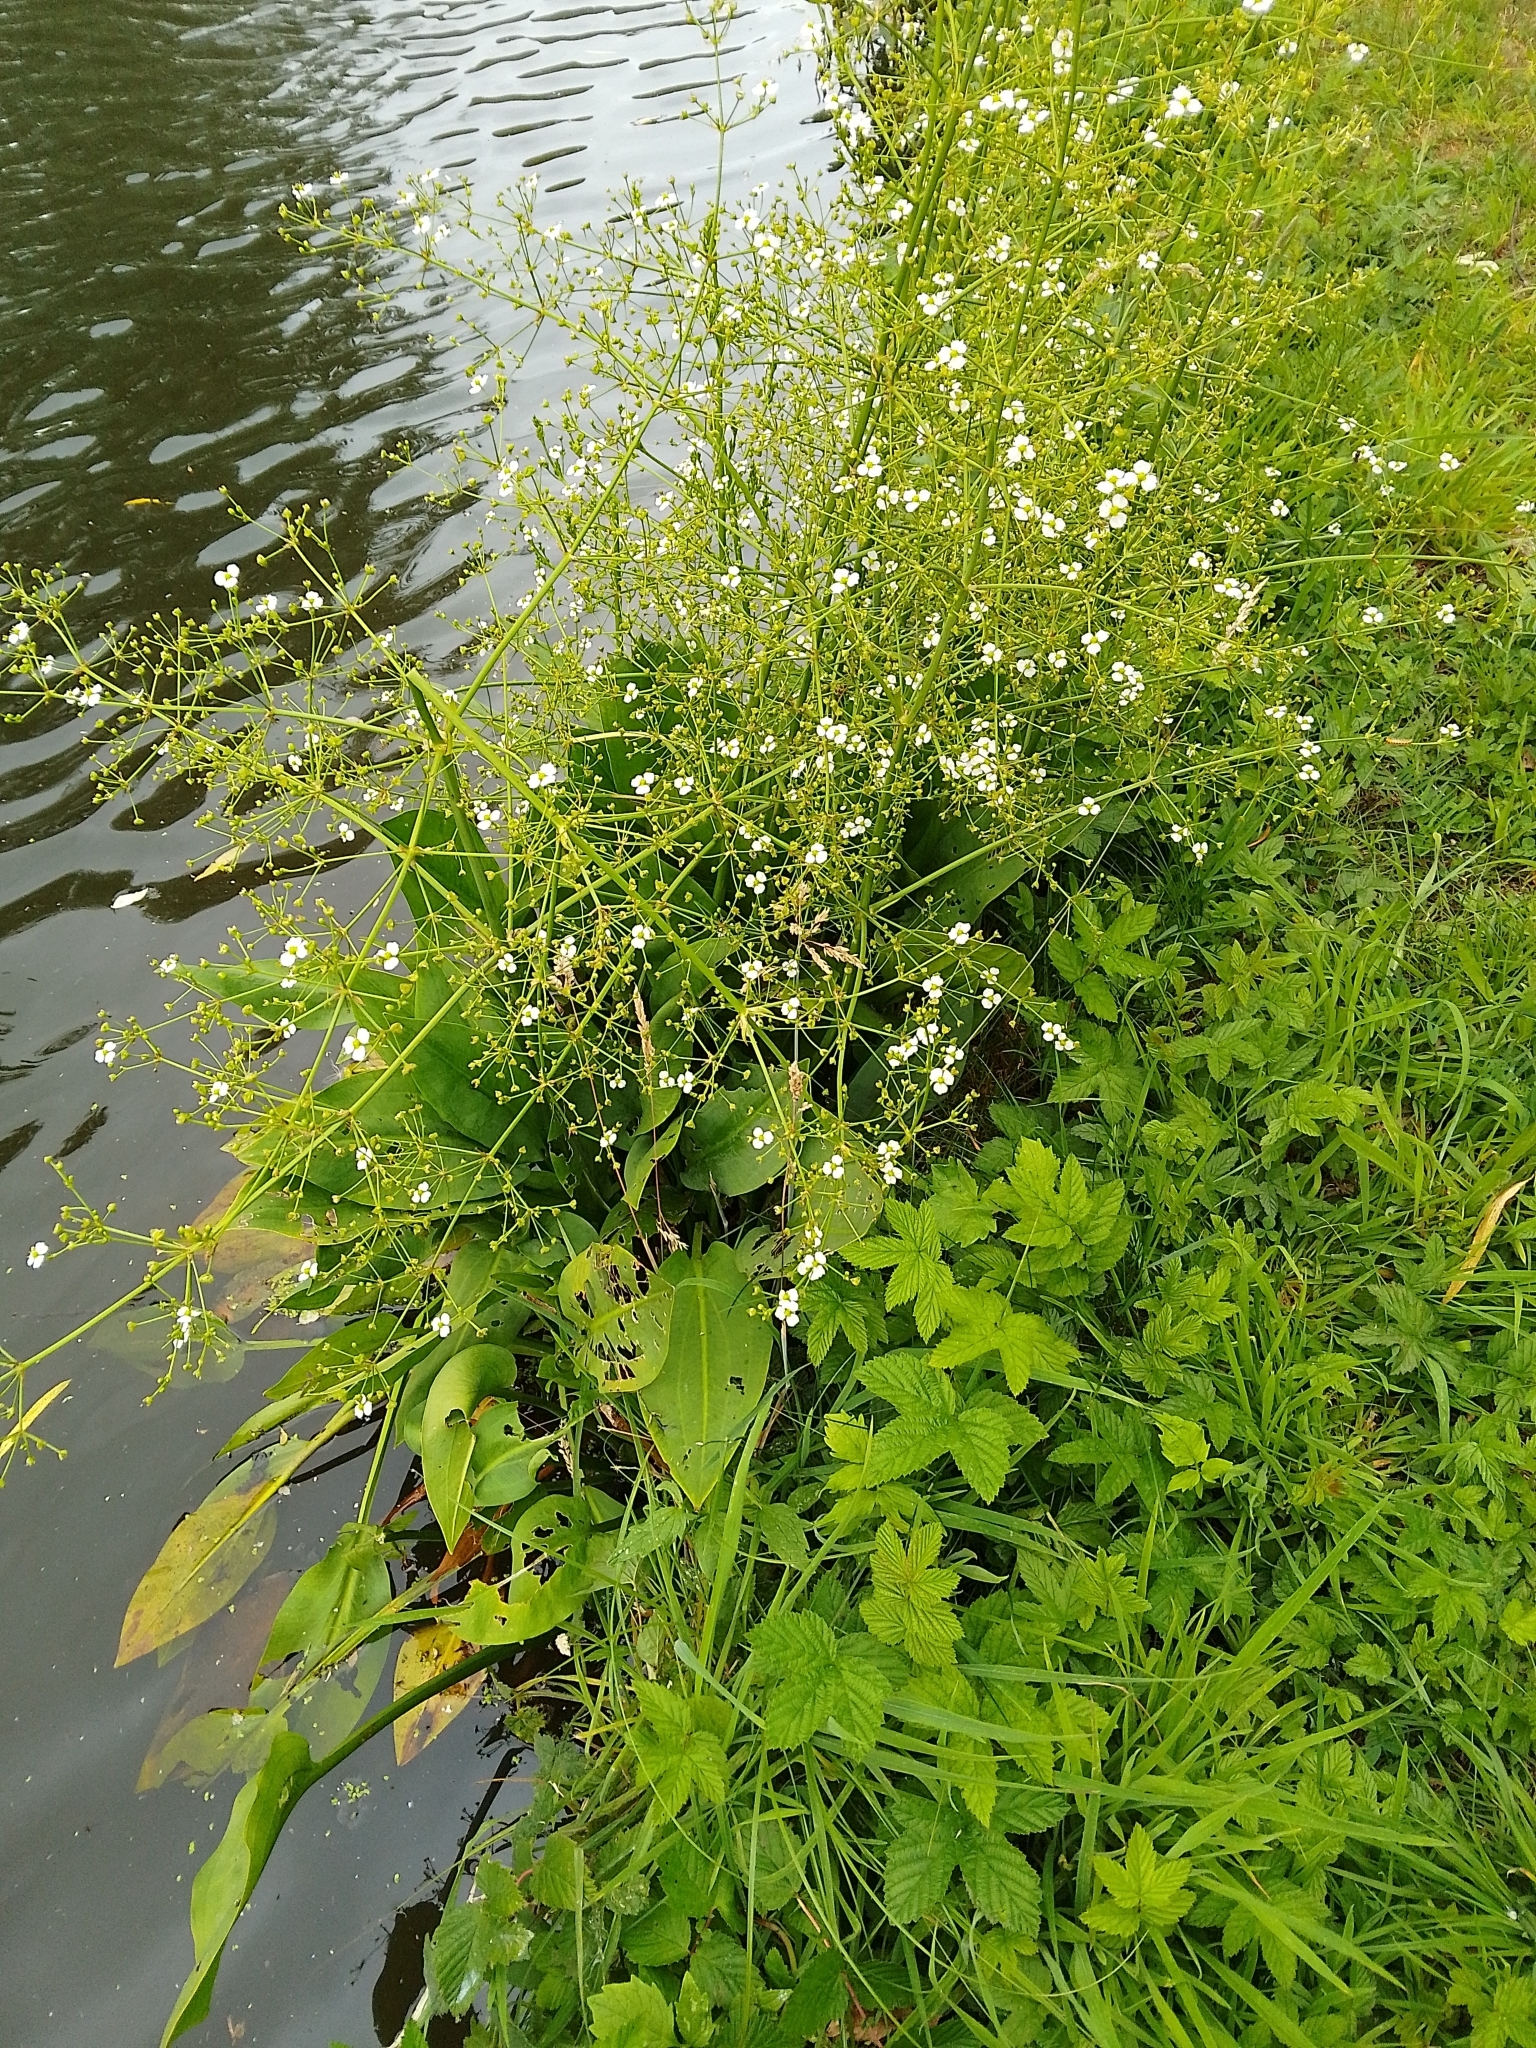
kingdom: Plantae
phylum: Tracheophyta
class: Liliopsida
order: Alismatales
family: Alismataceae
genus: Alisma
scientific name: Alisma plantago-aquatica
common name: Water-plantain
